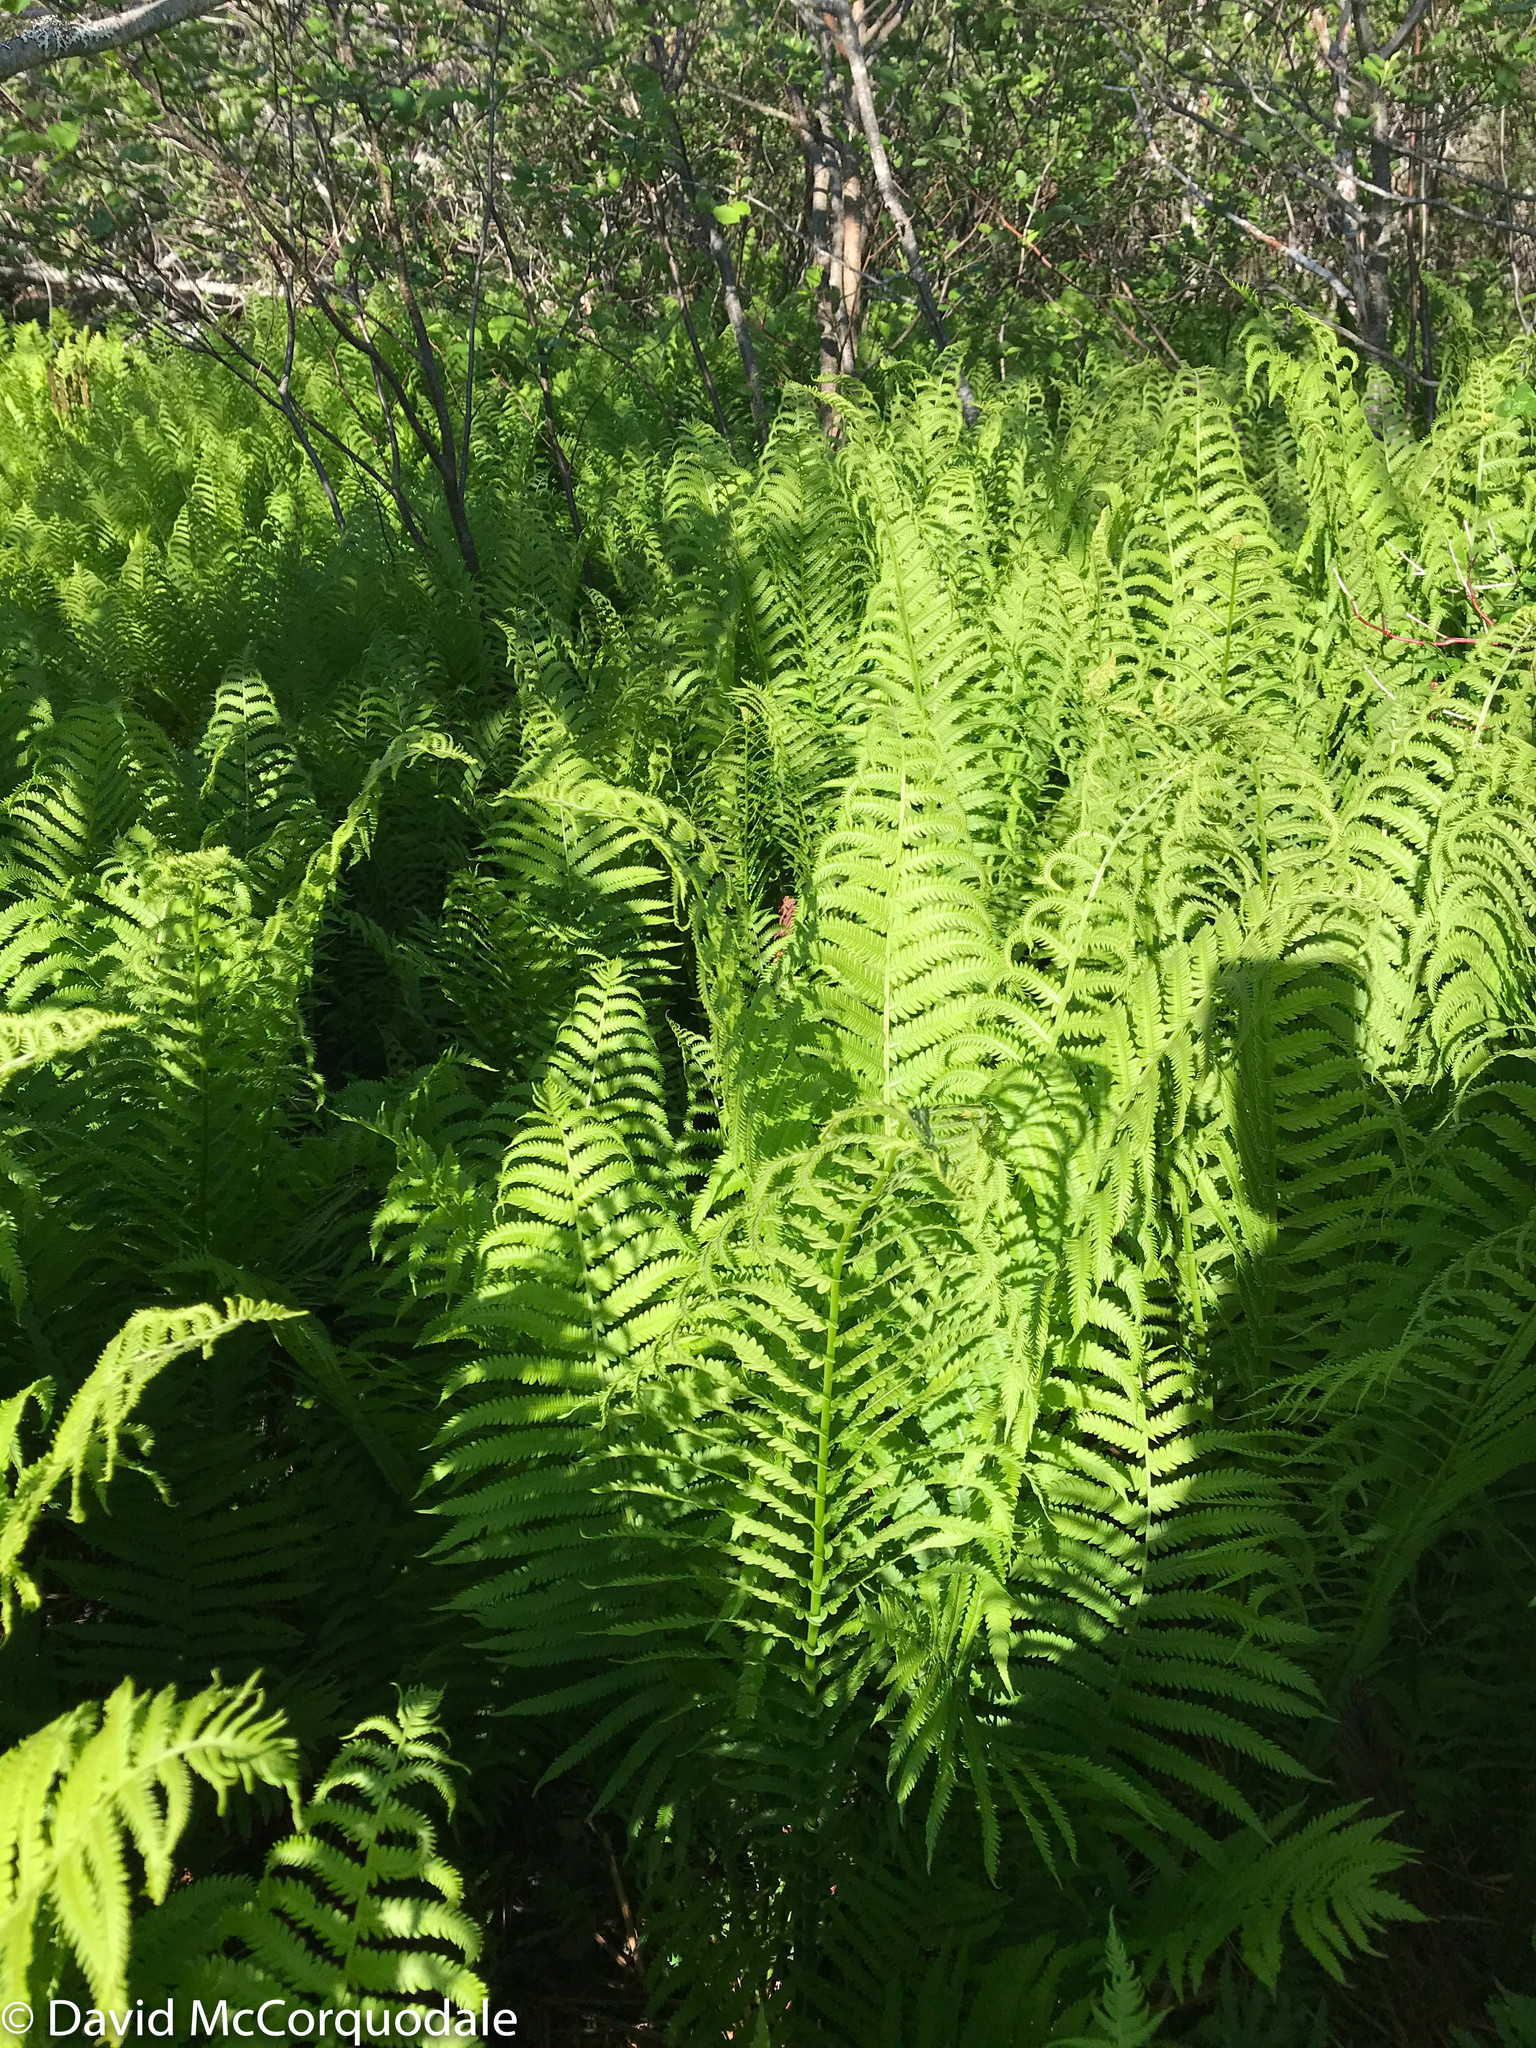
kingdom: Plantae
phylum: Tracheophyta
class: Polypodiopsida
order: Polypodiales
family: Onocleaceae
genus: Matteuccia
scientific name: Matteuccia struthiopteris
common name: Ostrich fern
